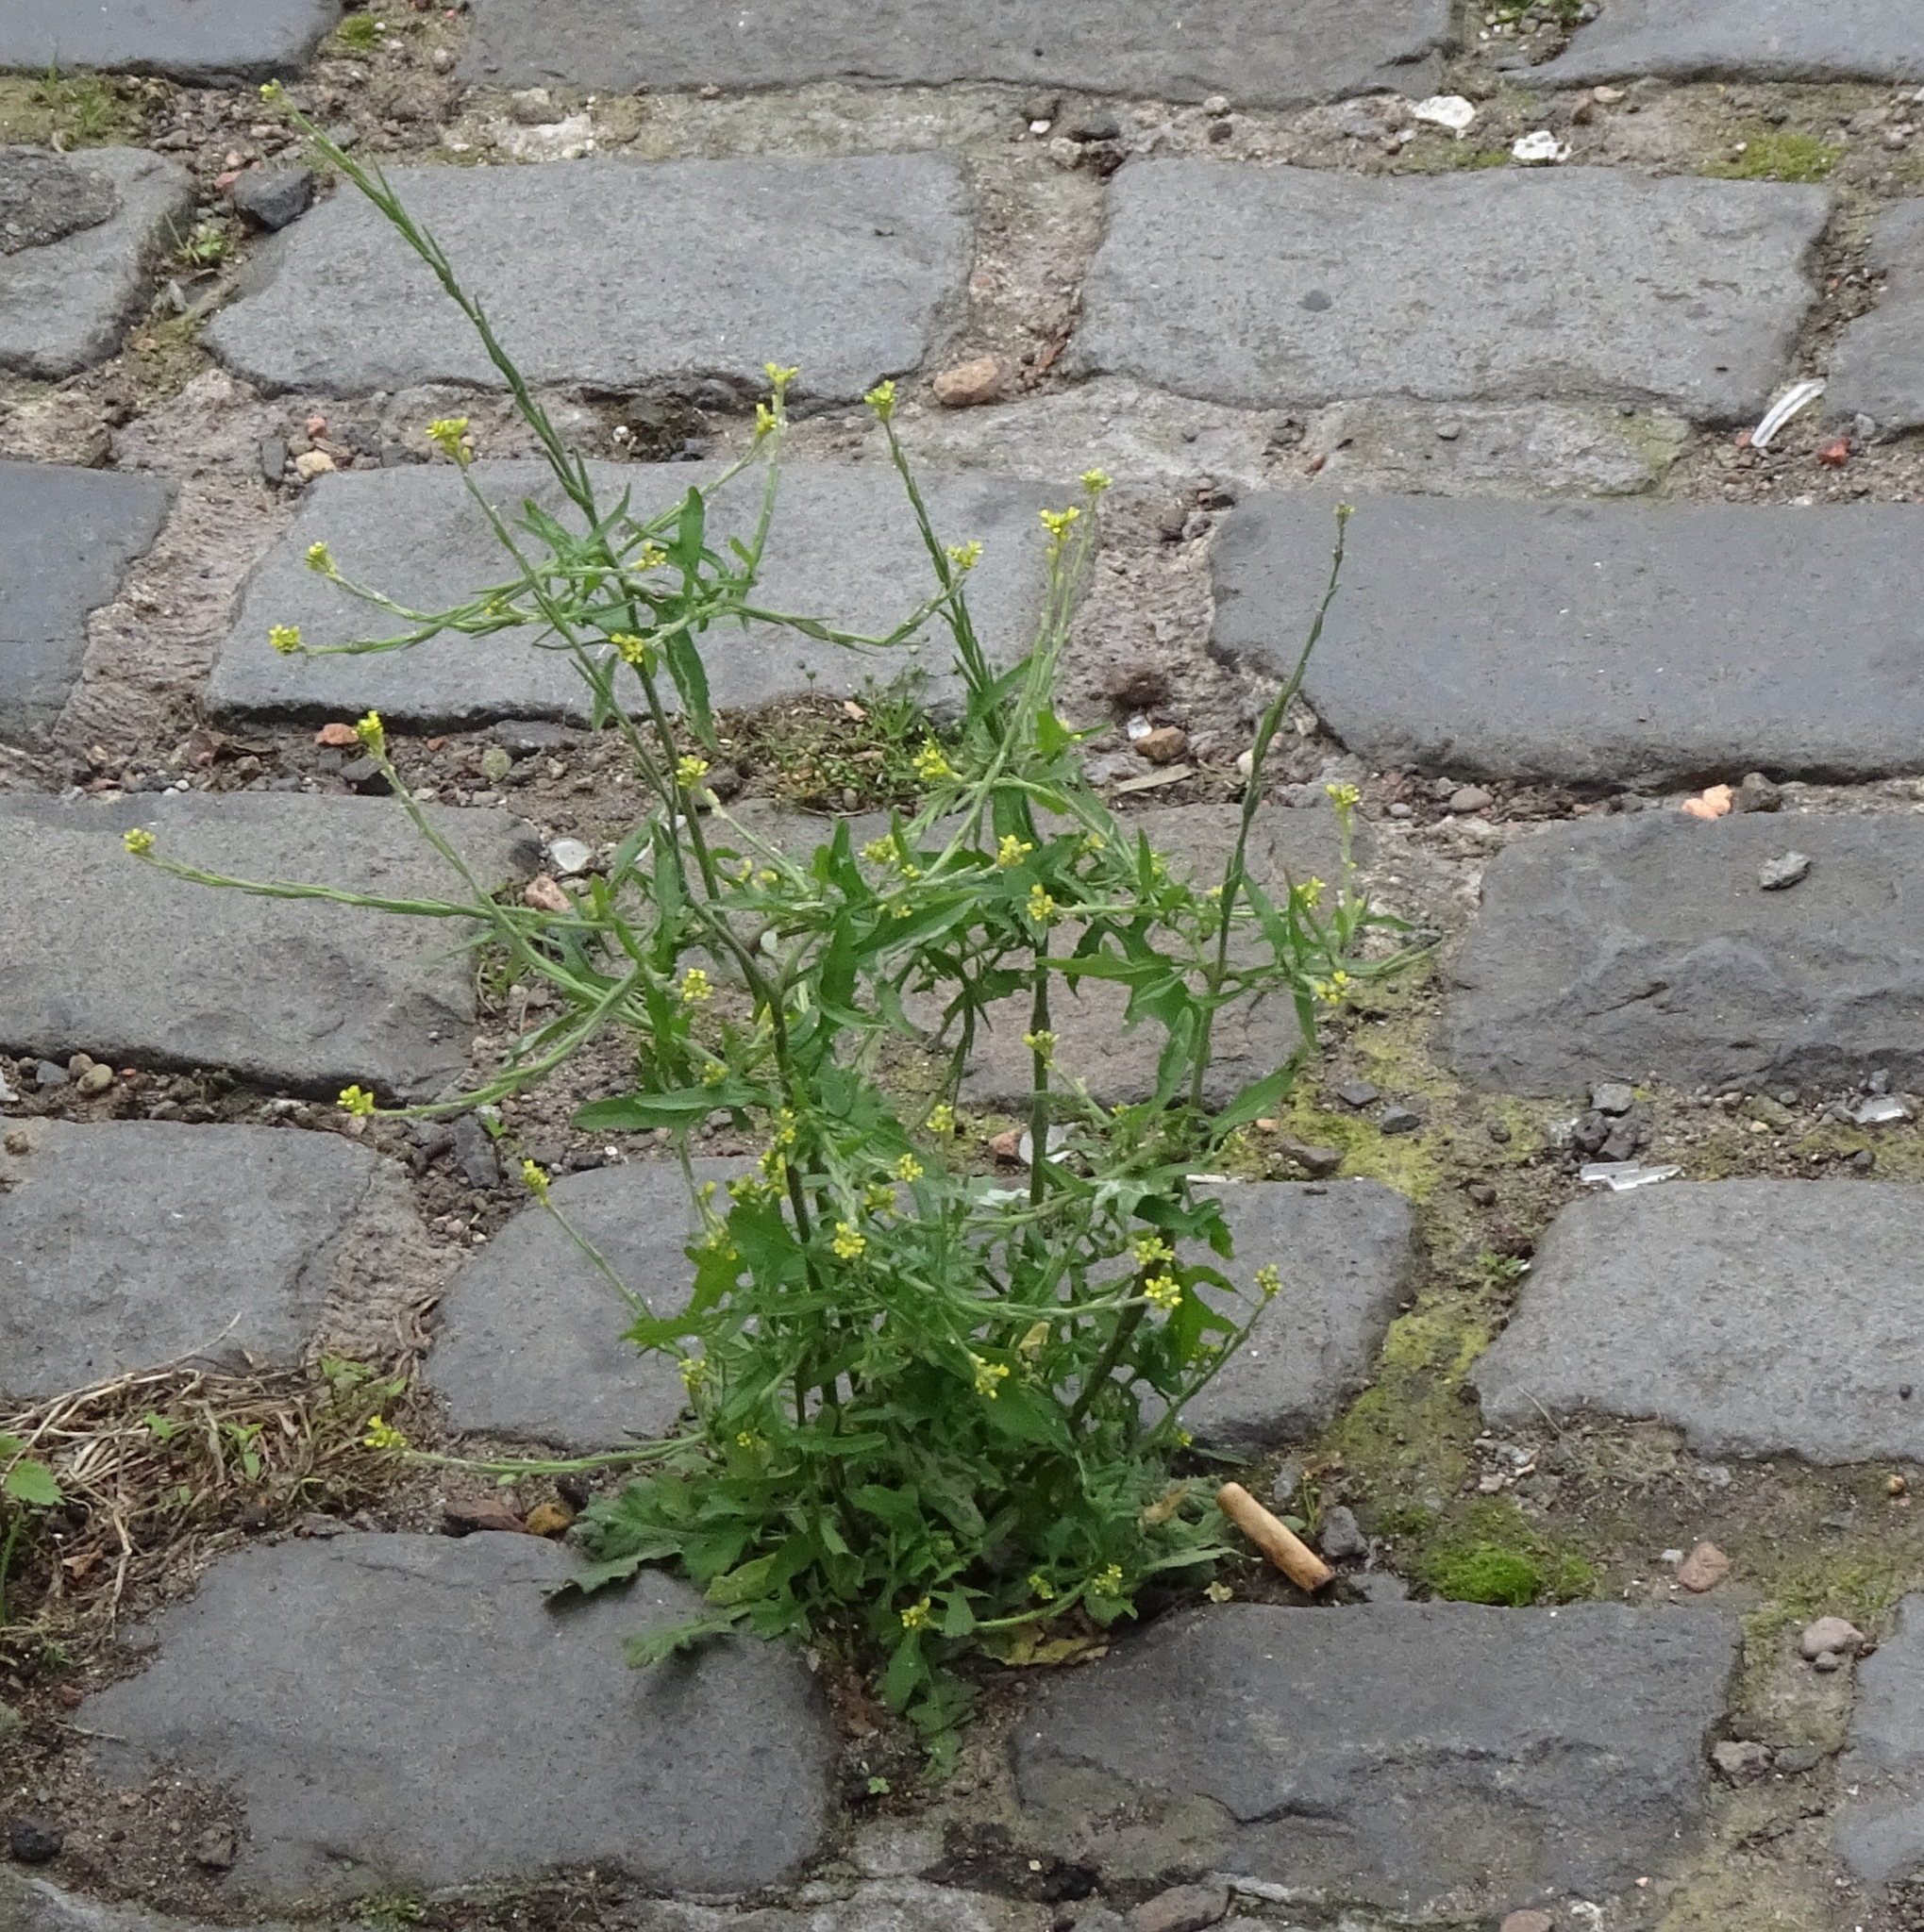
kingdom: Plantae
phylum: Tracheophyta
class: Magnoliopsida
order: Brassicales
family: Brassicaceae
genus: Sisymbrium
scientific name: Sisymbrium officinale
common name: Hedge mustard
